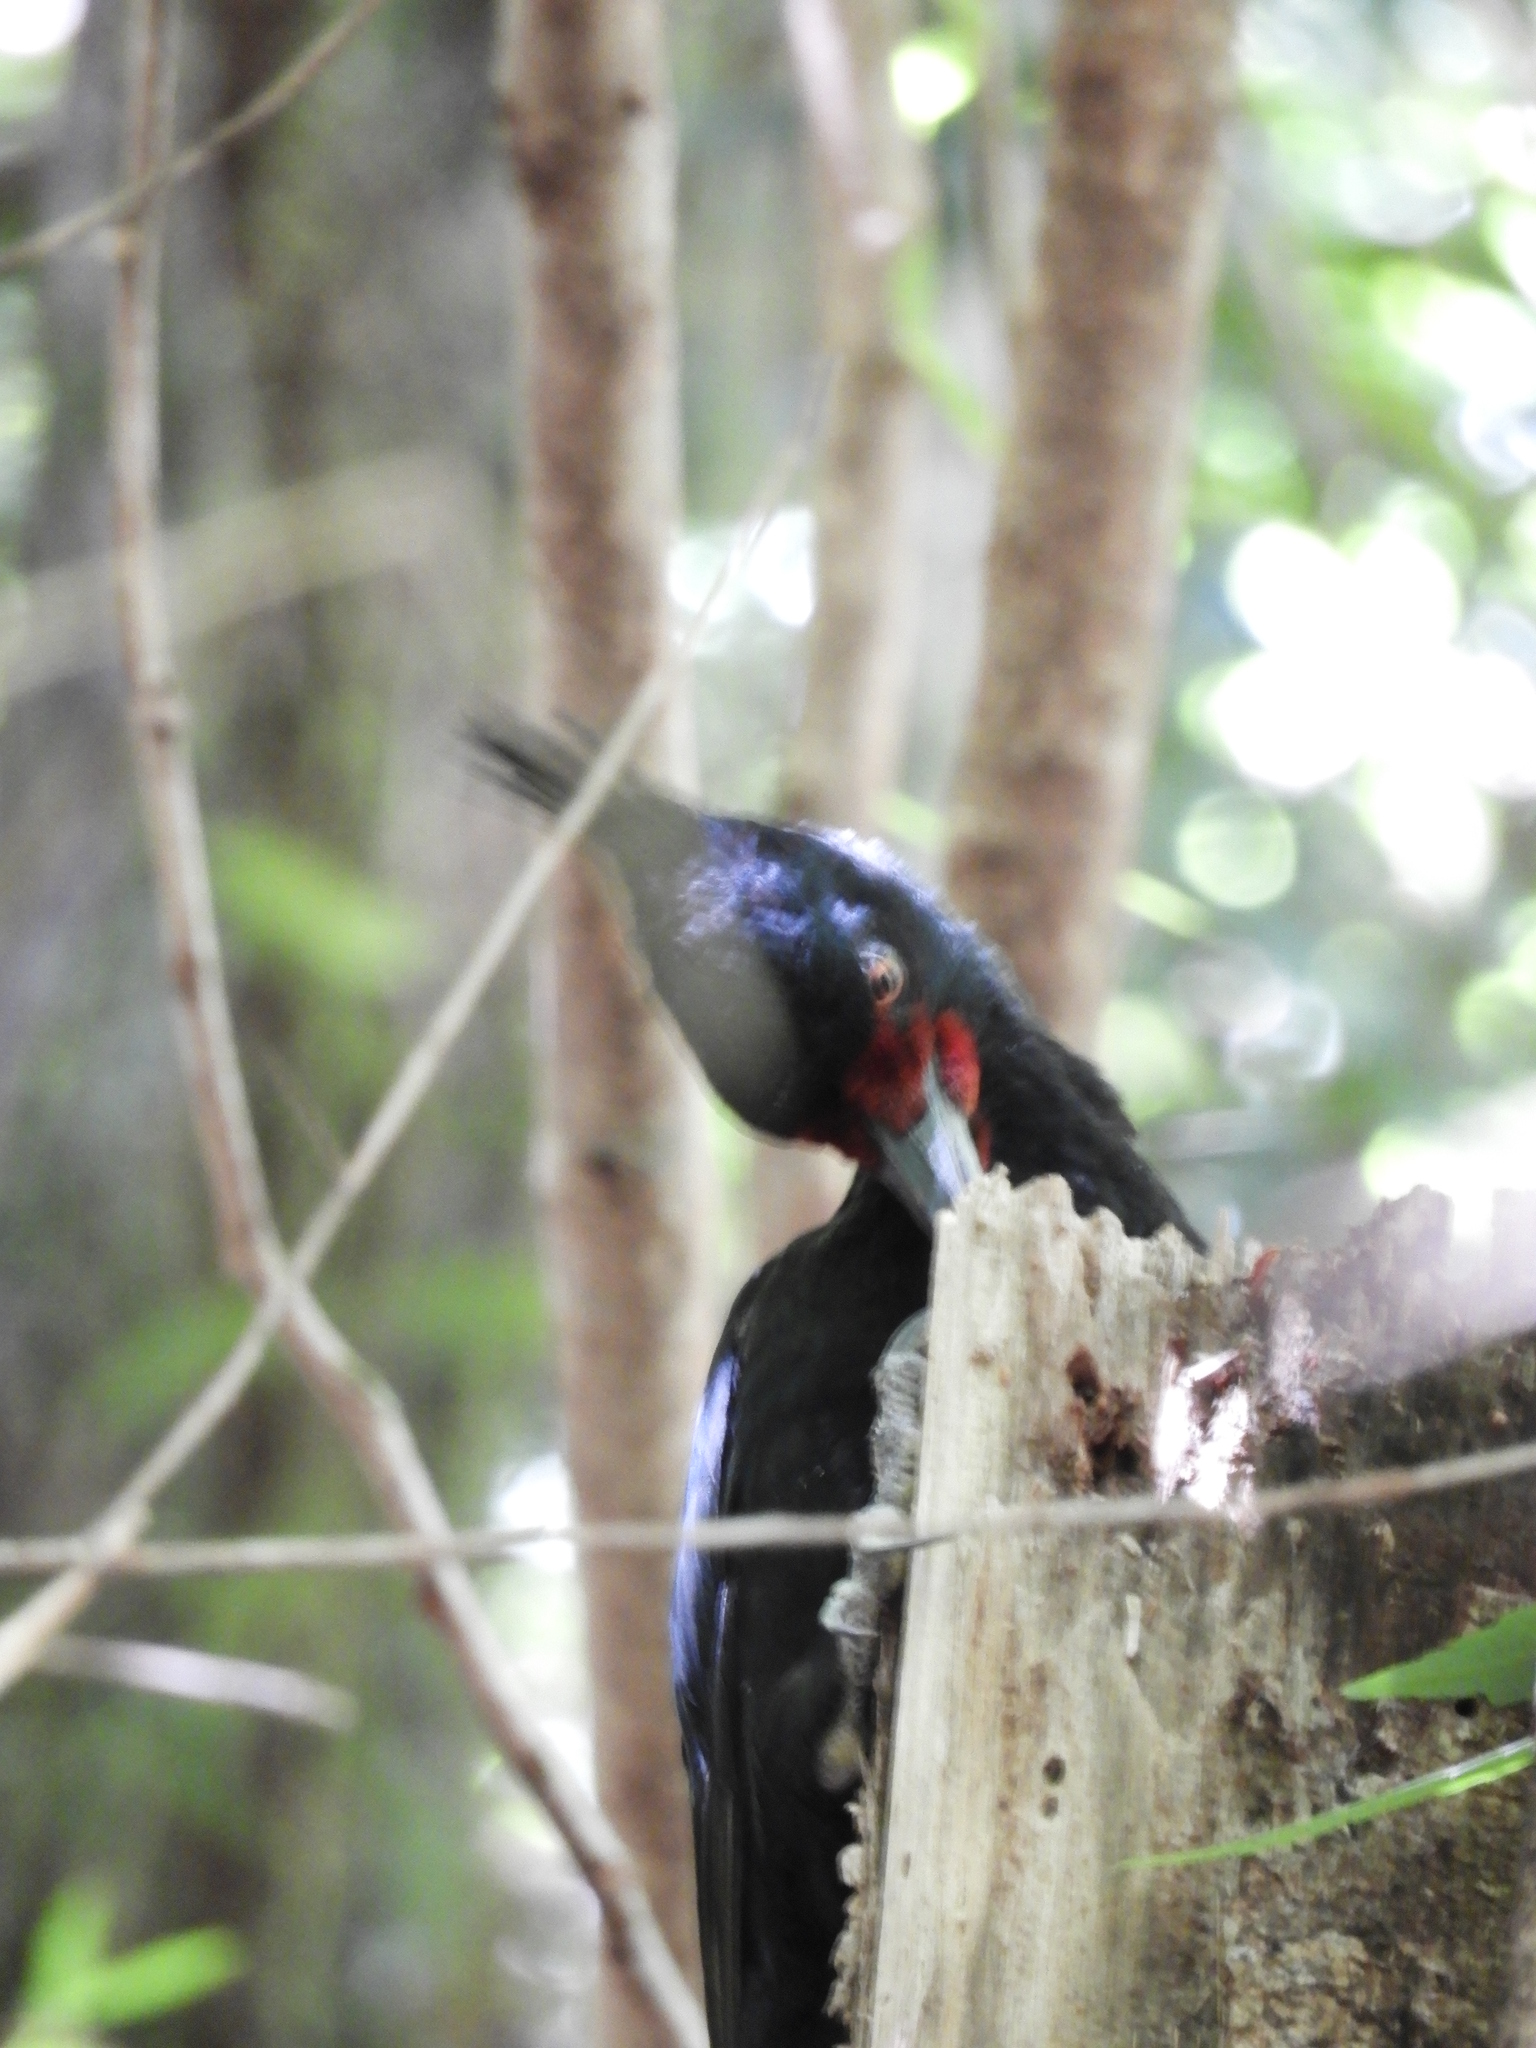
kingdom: Animalia
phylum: Chordata
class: Aves
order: Piciformes
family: Picidae
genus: Campephilus
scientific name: Campephilus magellanicus
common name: Magellanic woodpecker
